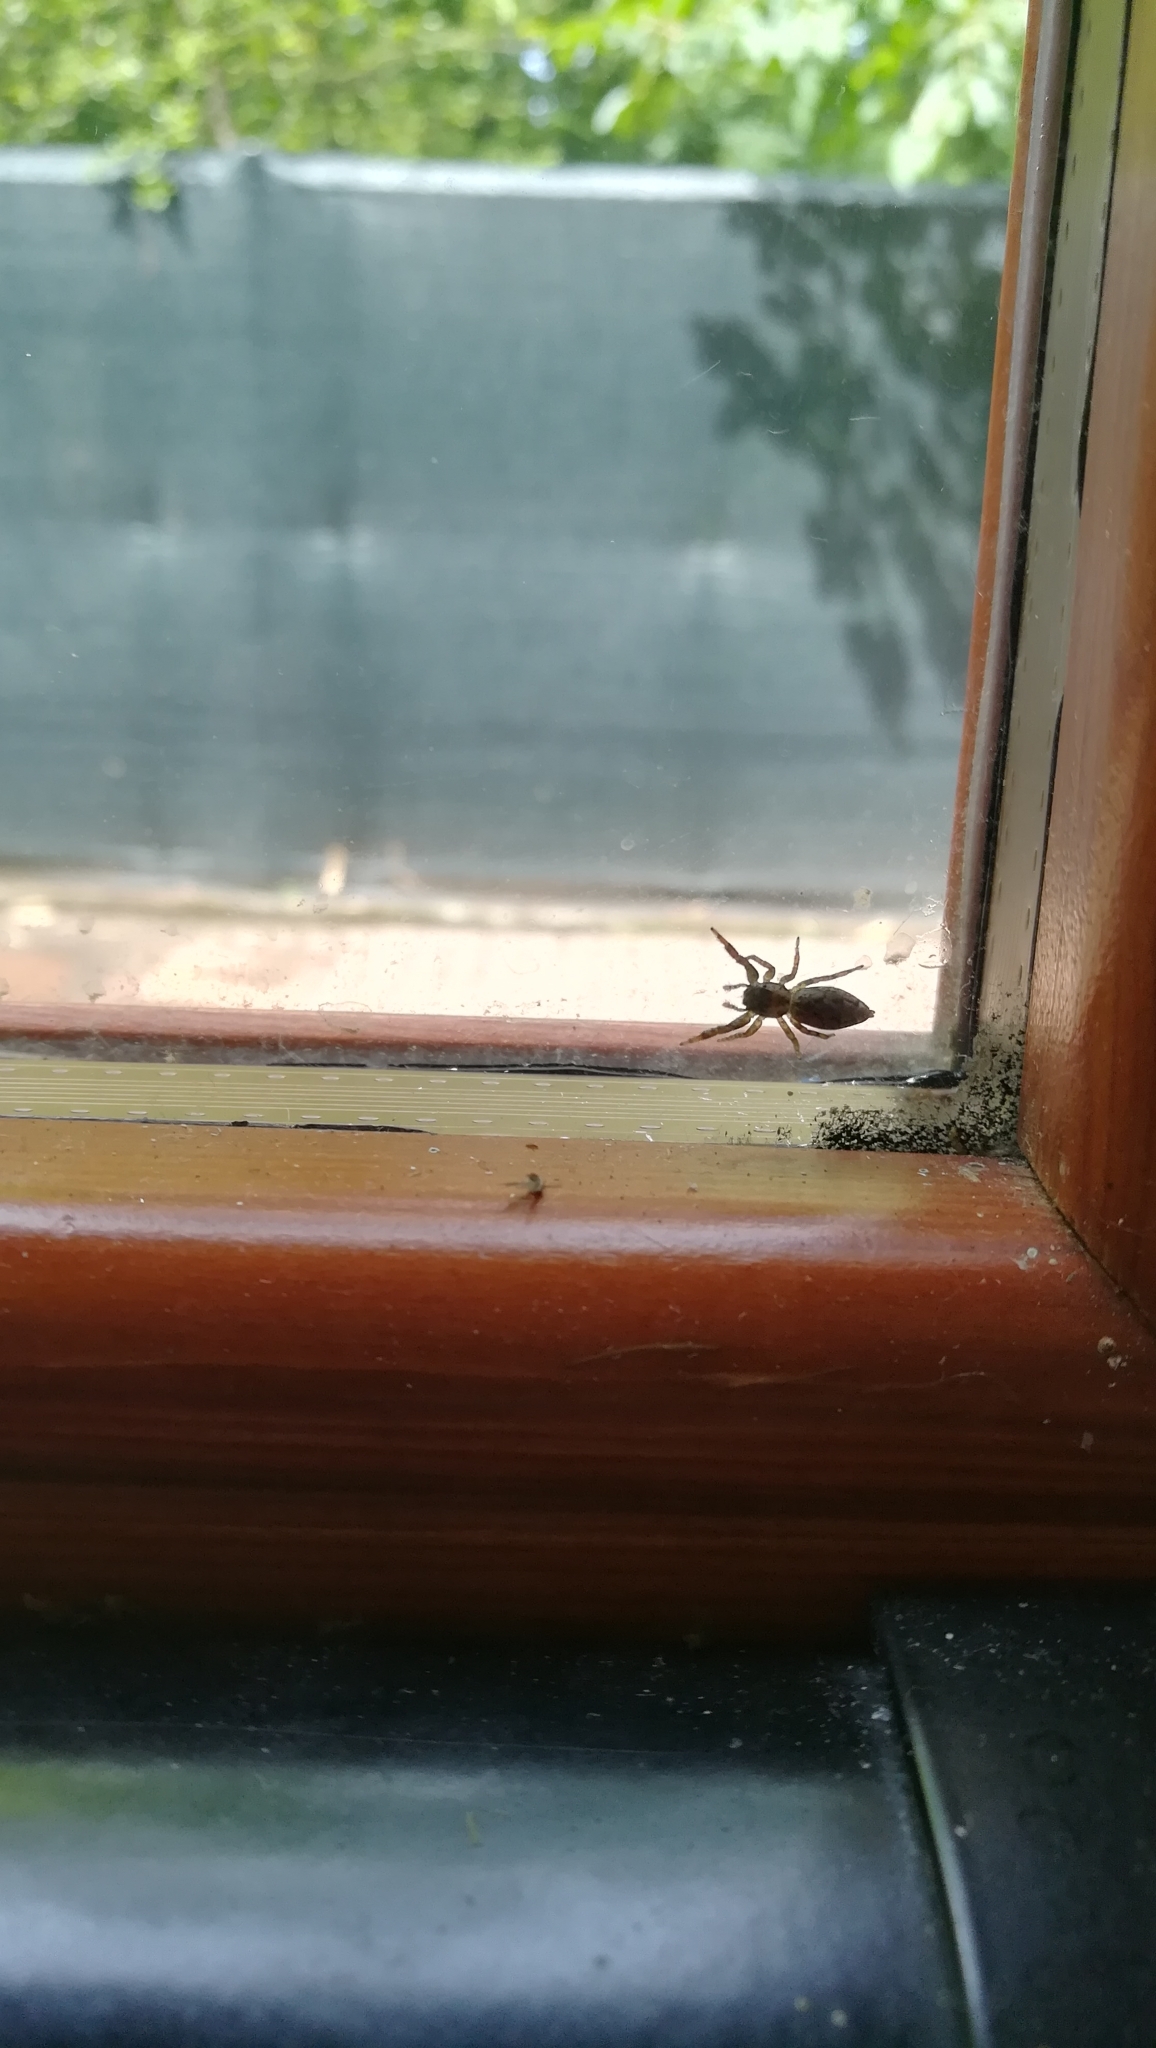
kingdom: Animalia
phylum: Arthropoda
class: Arachnida
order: Araneae
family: Salticidae
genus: Marpissa
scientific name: Marpissa muscosa
